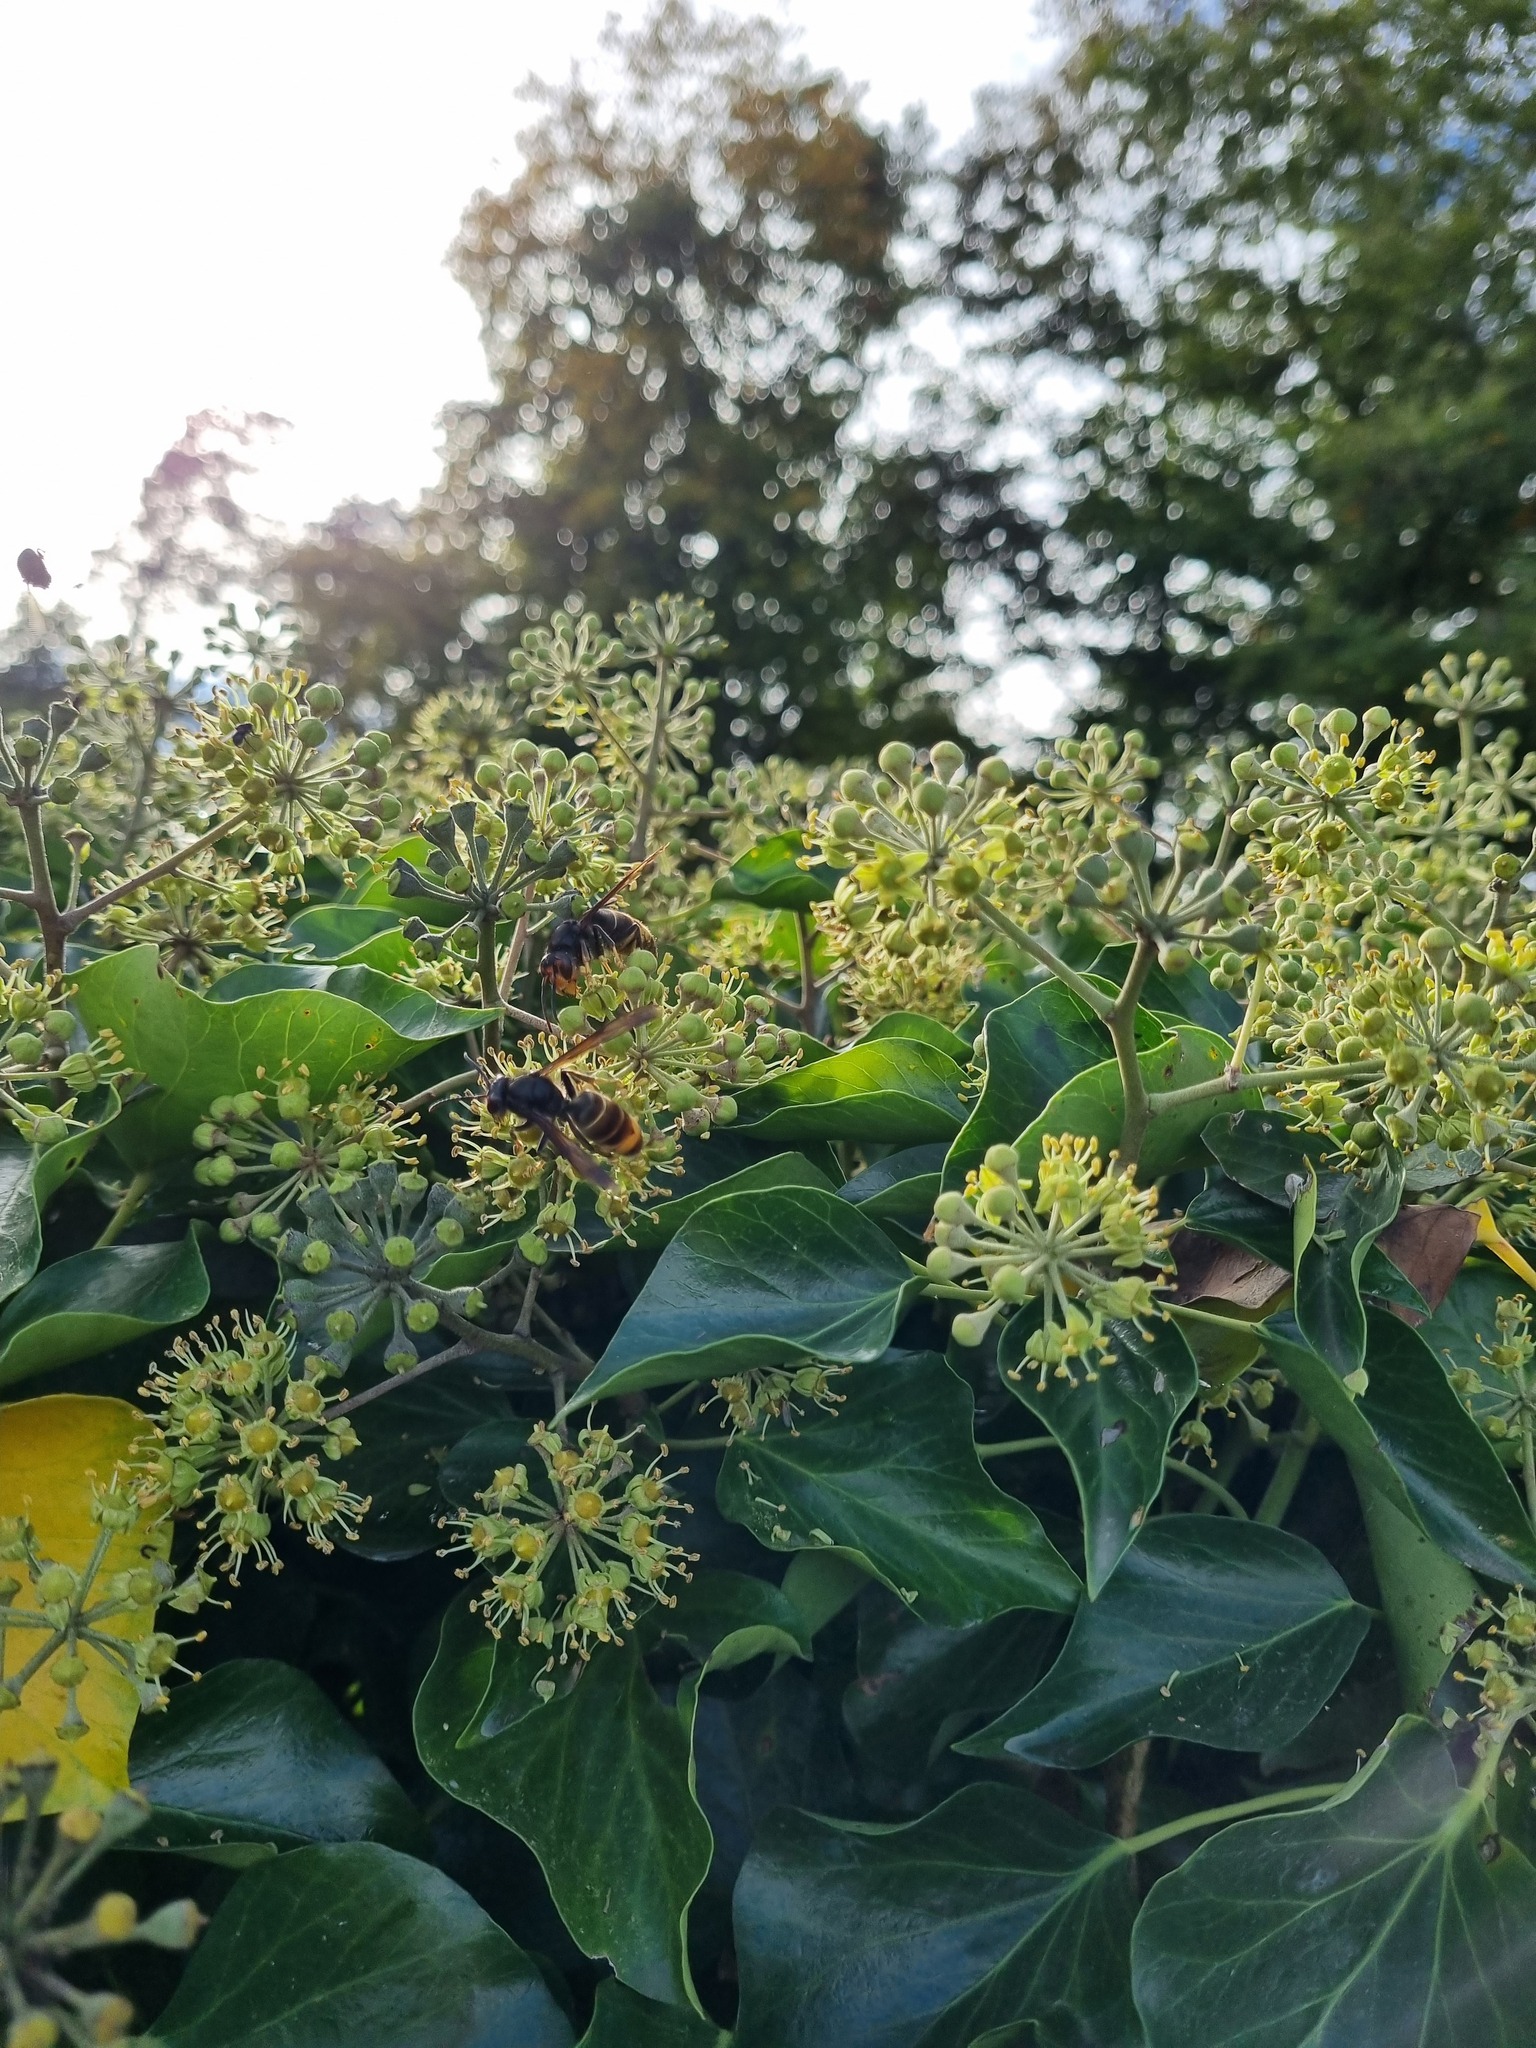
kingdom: Animalia
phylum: Arthropoda
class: Insecta
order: Hymenoptera
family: Vespidae
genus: Vespa
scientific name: Vespa velutina
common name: Asian hornet
